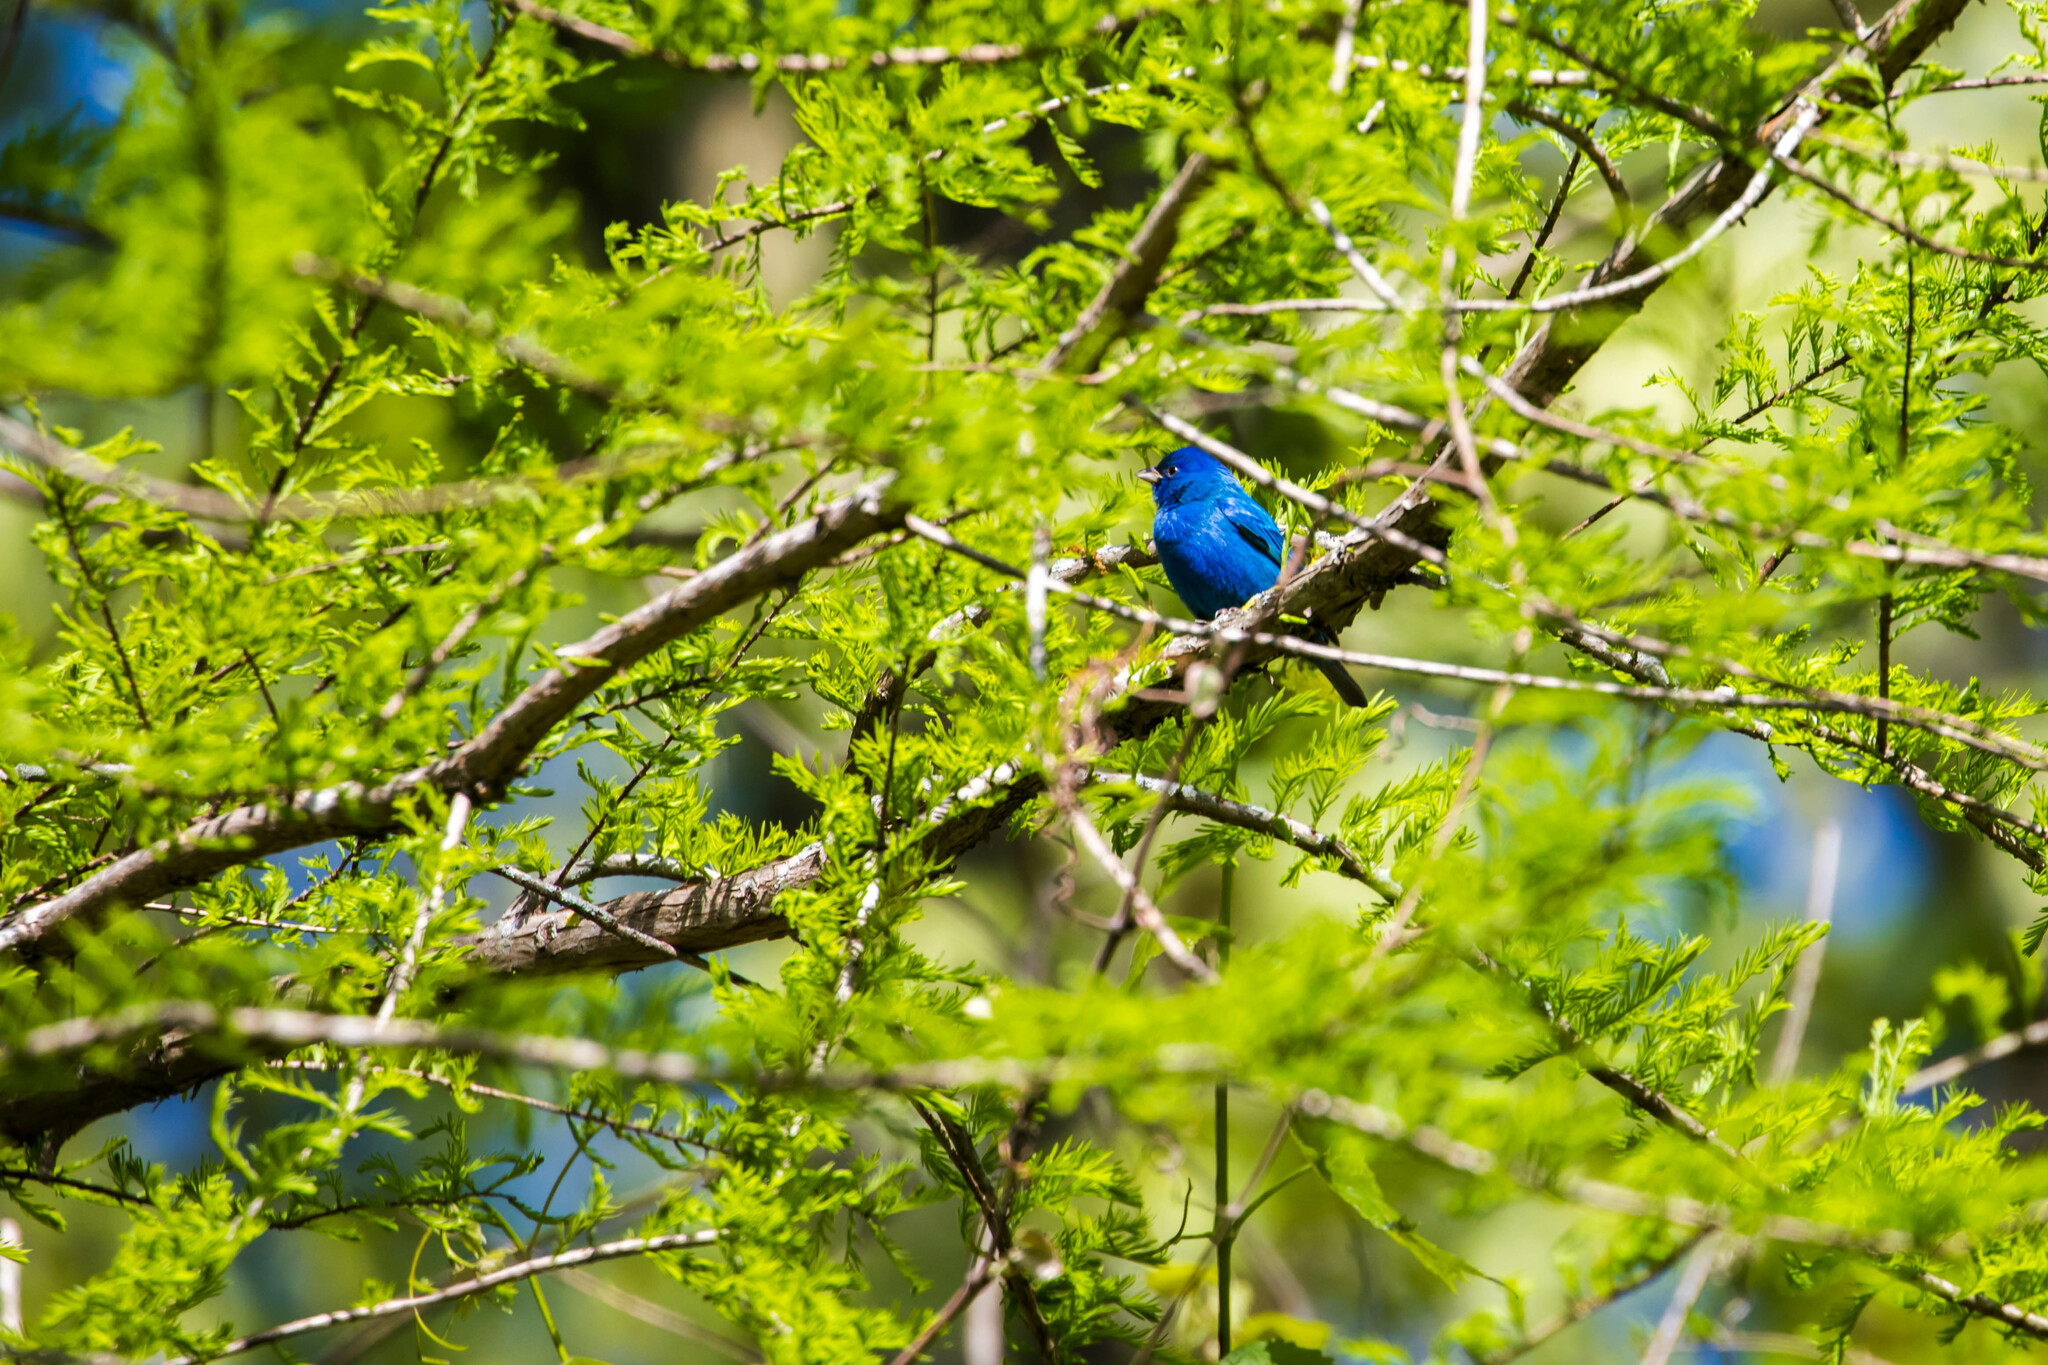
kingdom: Animalia
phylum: Chordata
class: Aves
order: Passeriformes
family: Cardinalidae
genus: Passerina
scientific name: Passerina cyanea
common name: Indigo bunting
